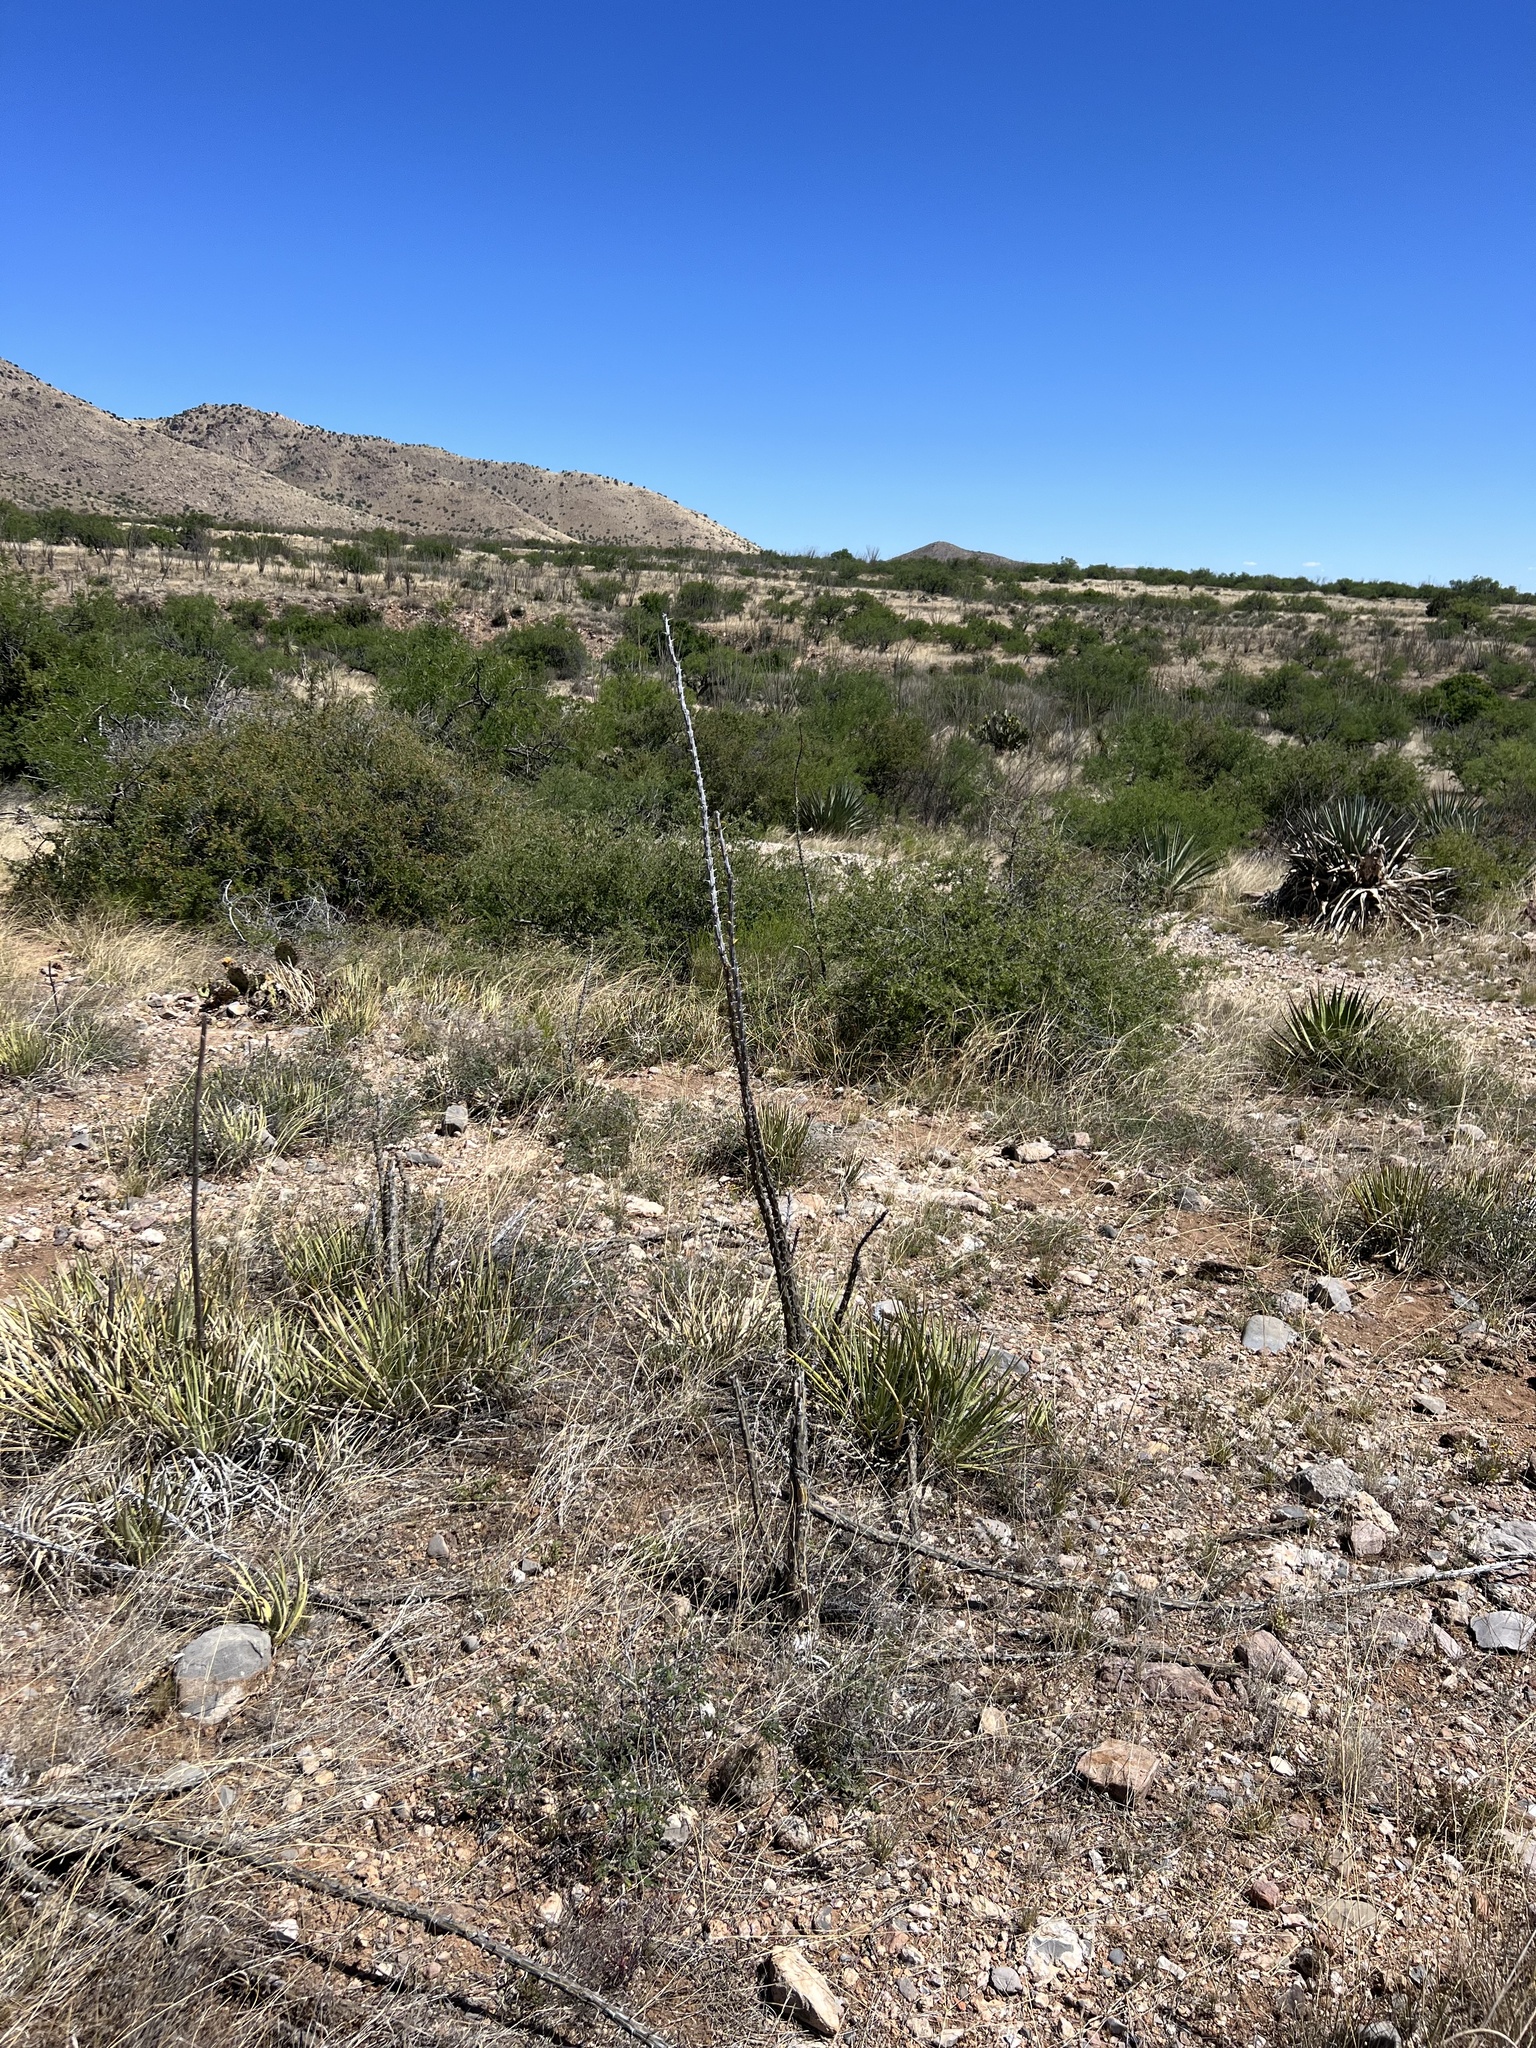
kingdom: Plantae
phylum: Tracheophyta
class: Magnoliopsida
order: Ericales
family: Fouquieriaceae
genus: Fouquieria
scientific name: Fouquieria splendens
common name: Vine-cactus
